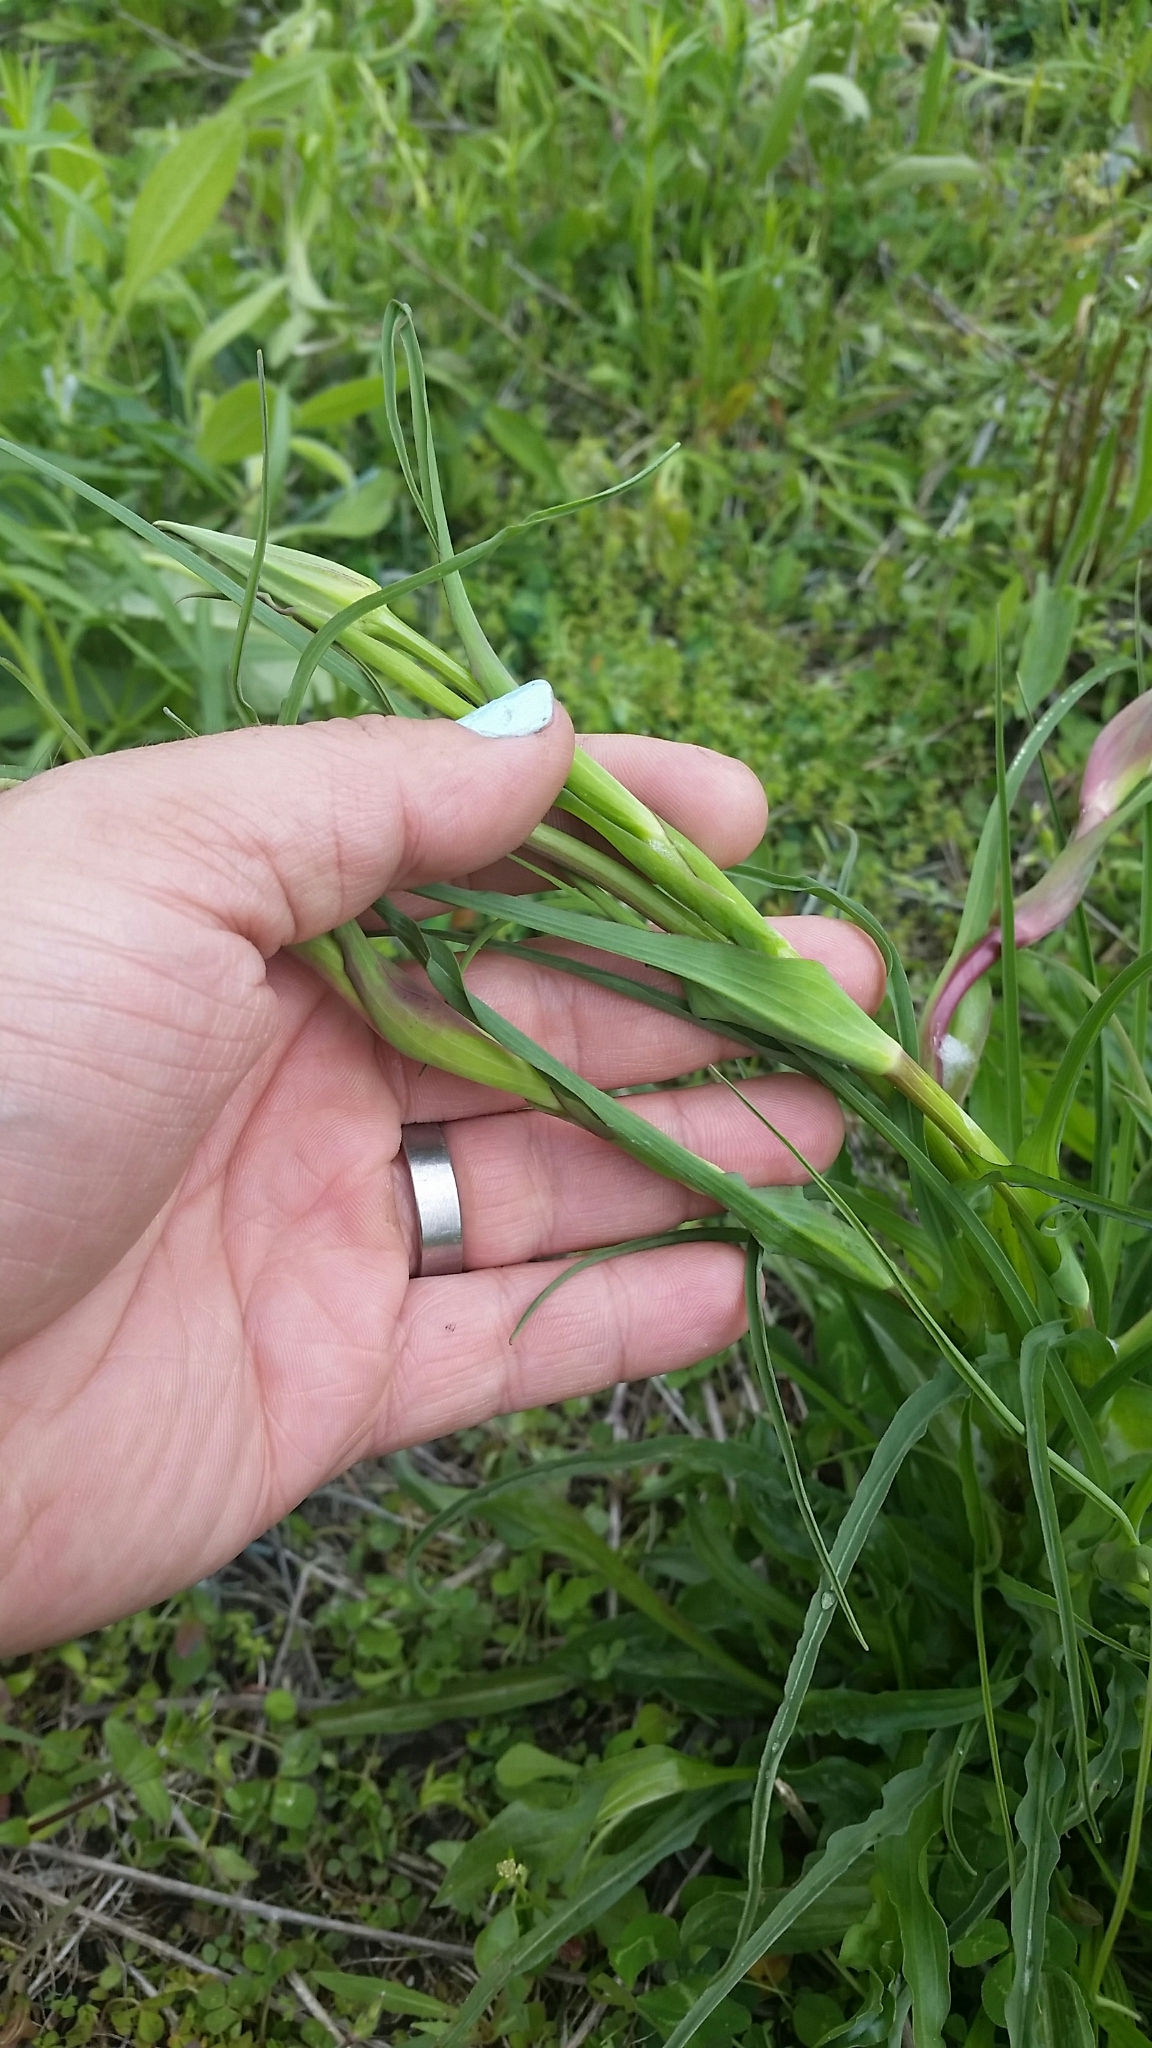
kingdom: Plantae
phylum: Tracheophyta
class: Magnoliopsida
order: Asterales
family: Asteraceae
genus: Tragopogon
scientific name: Tragopogon dubius
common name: Yellow salsify
